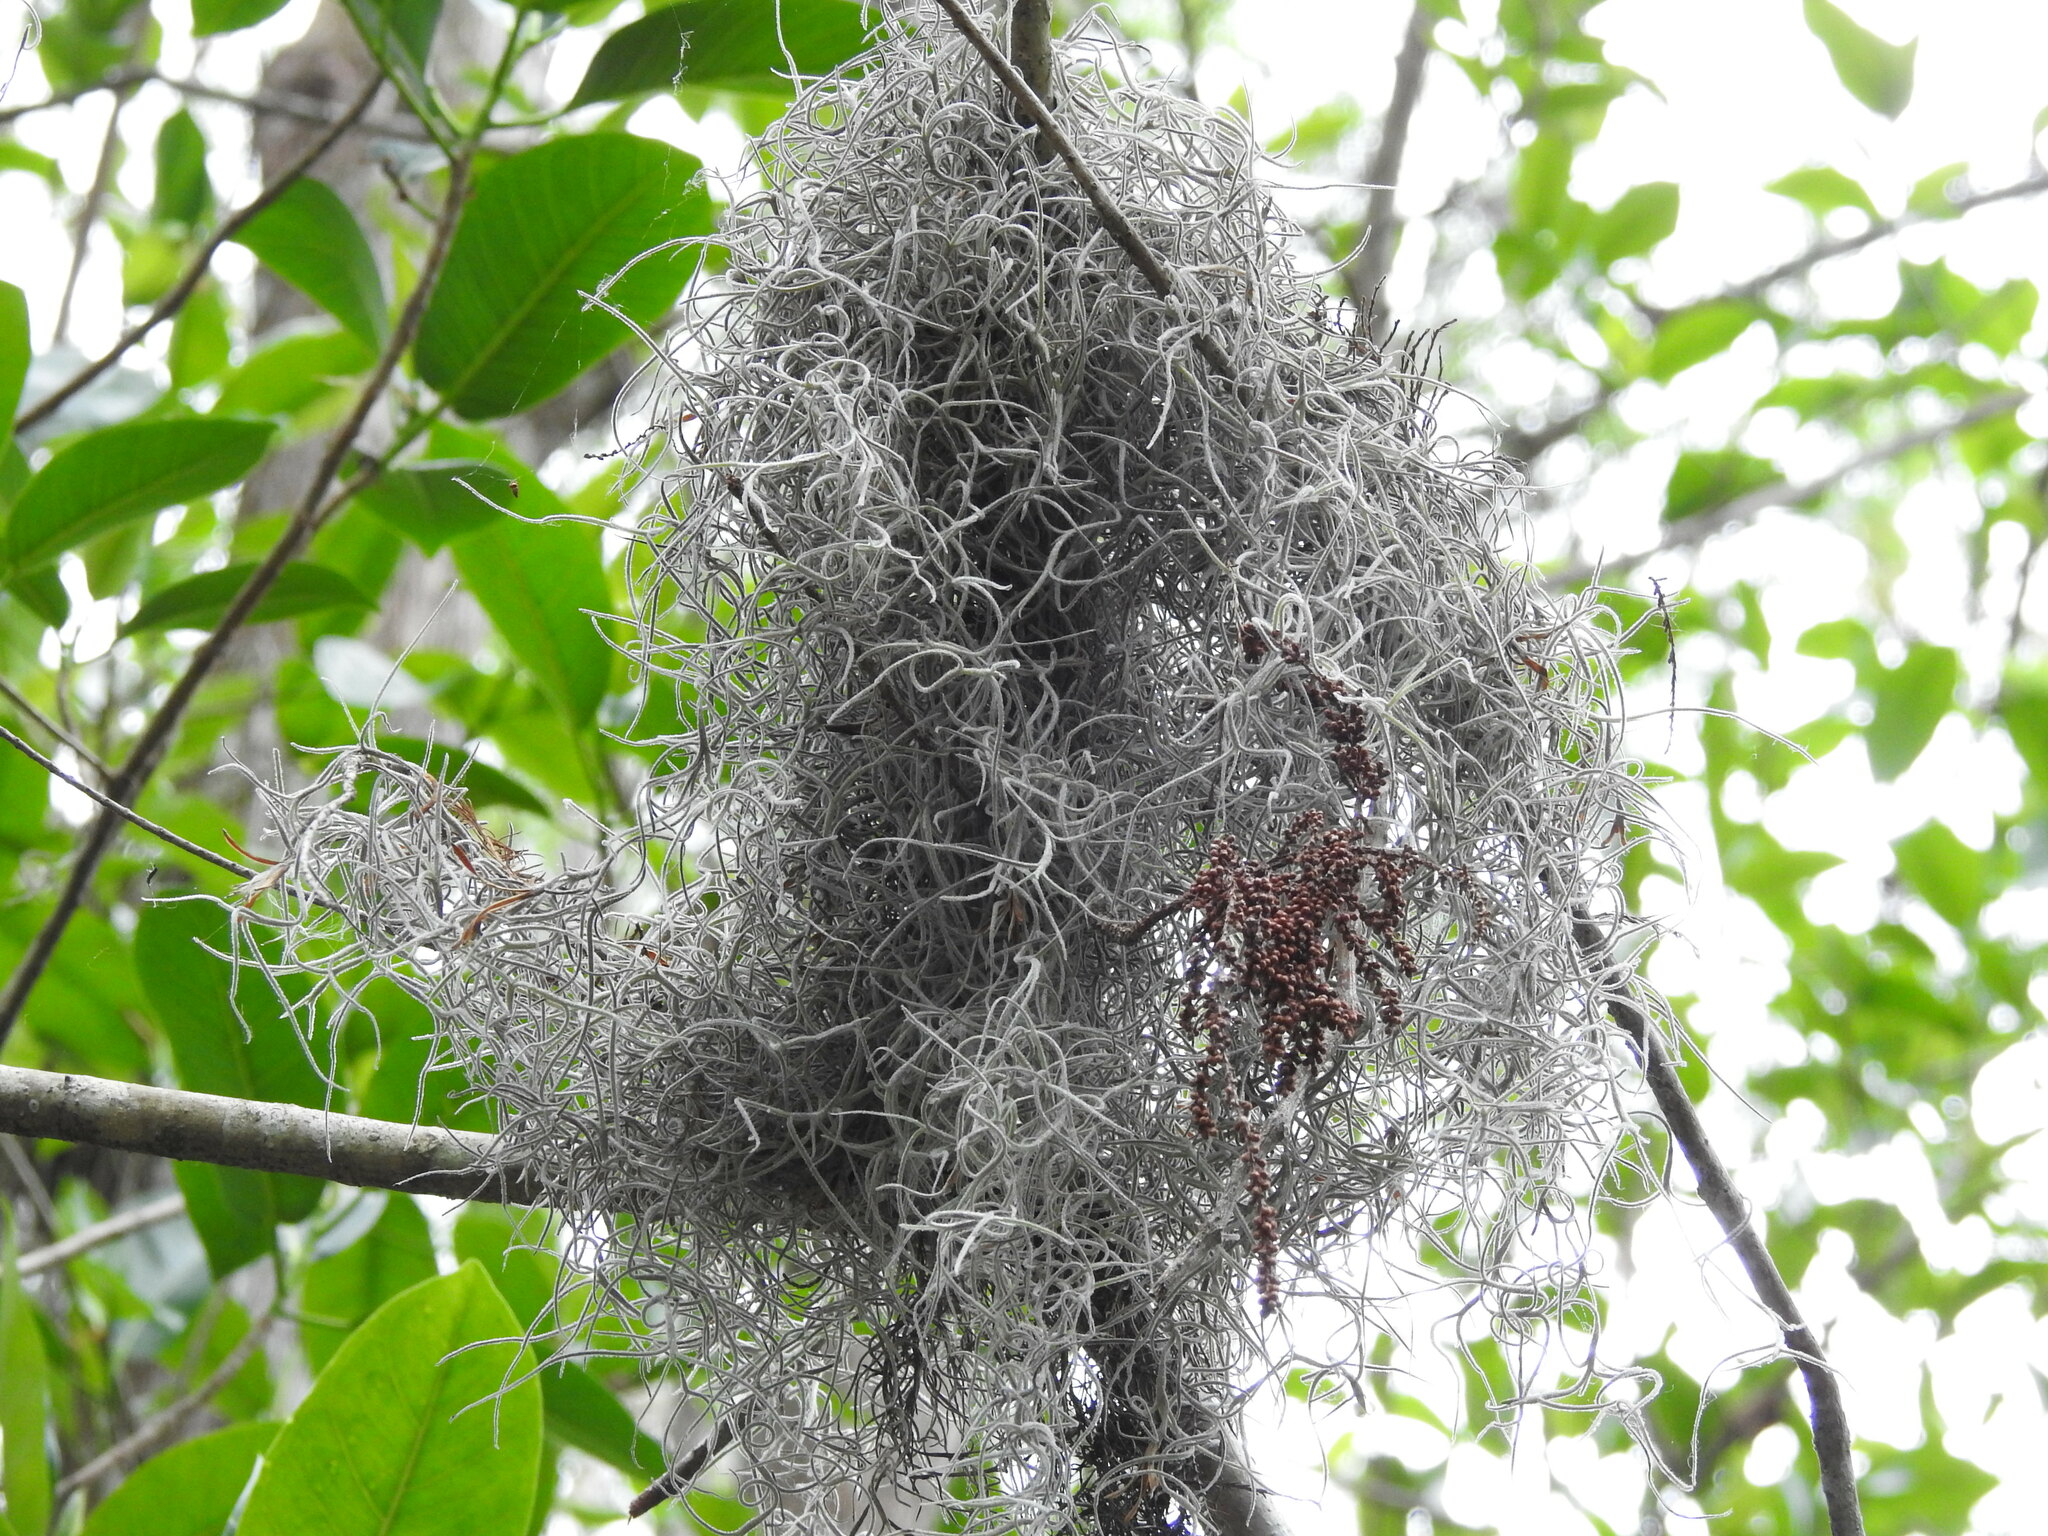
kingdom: Plantae
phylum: Tracheophyta
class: Liliopsida
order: Poales
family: Bromeliaceae
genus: Tillandsia
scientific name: Tillandsia usneoides
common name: Spanish moss
